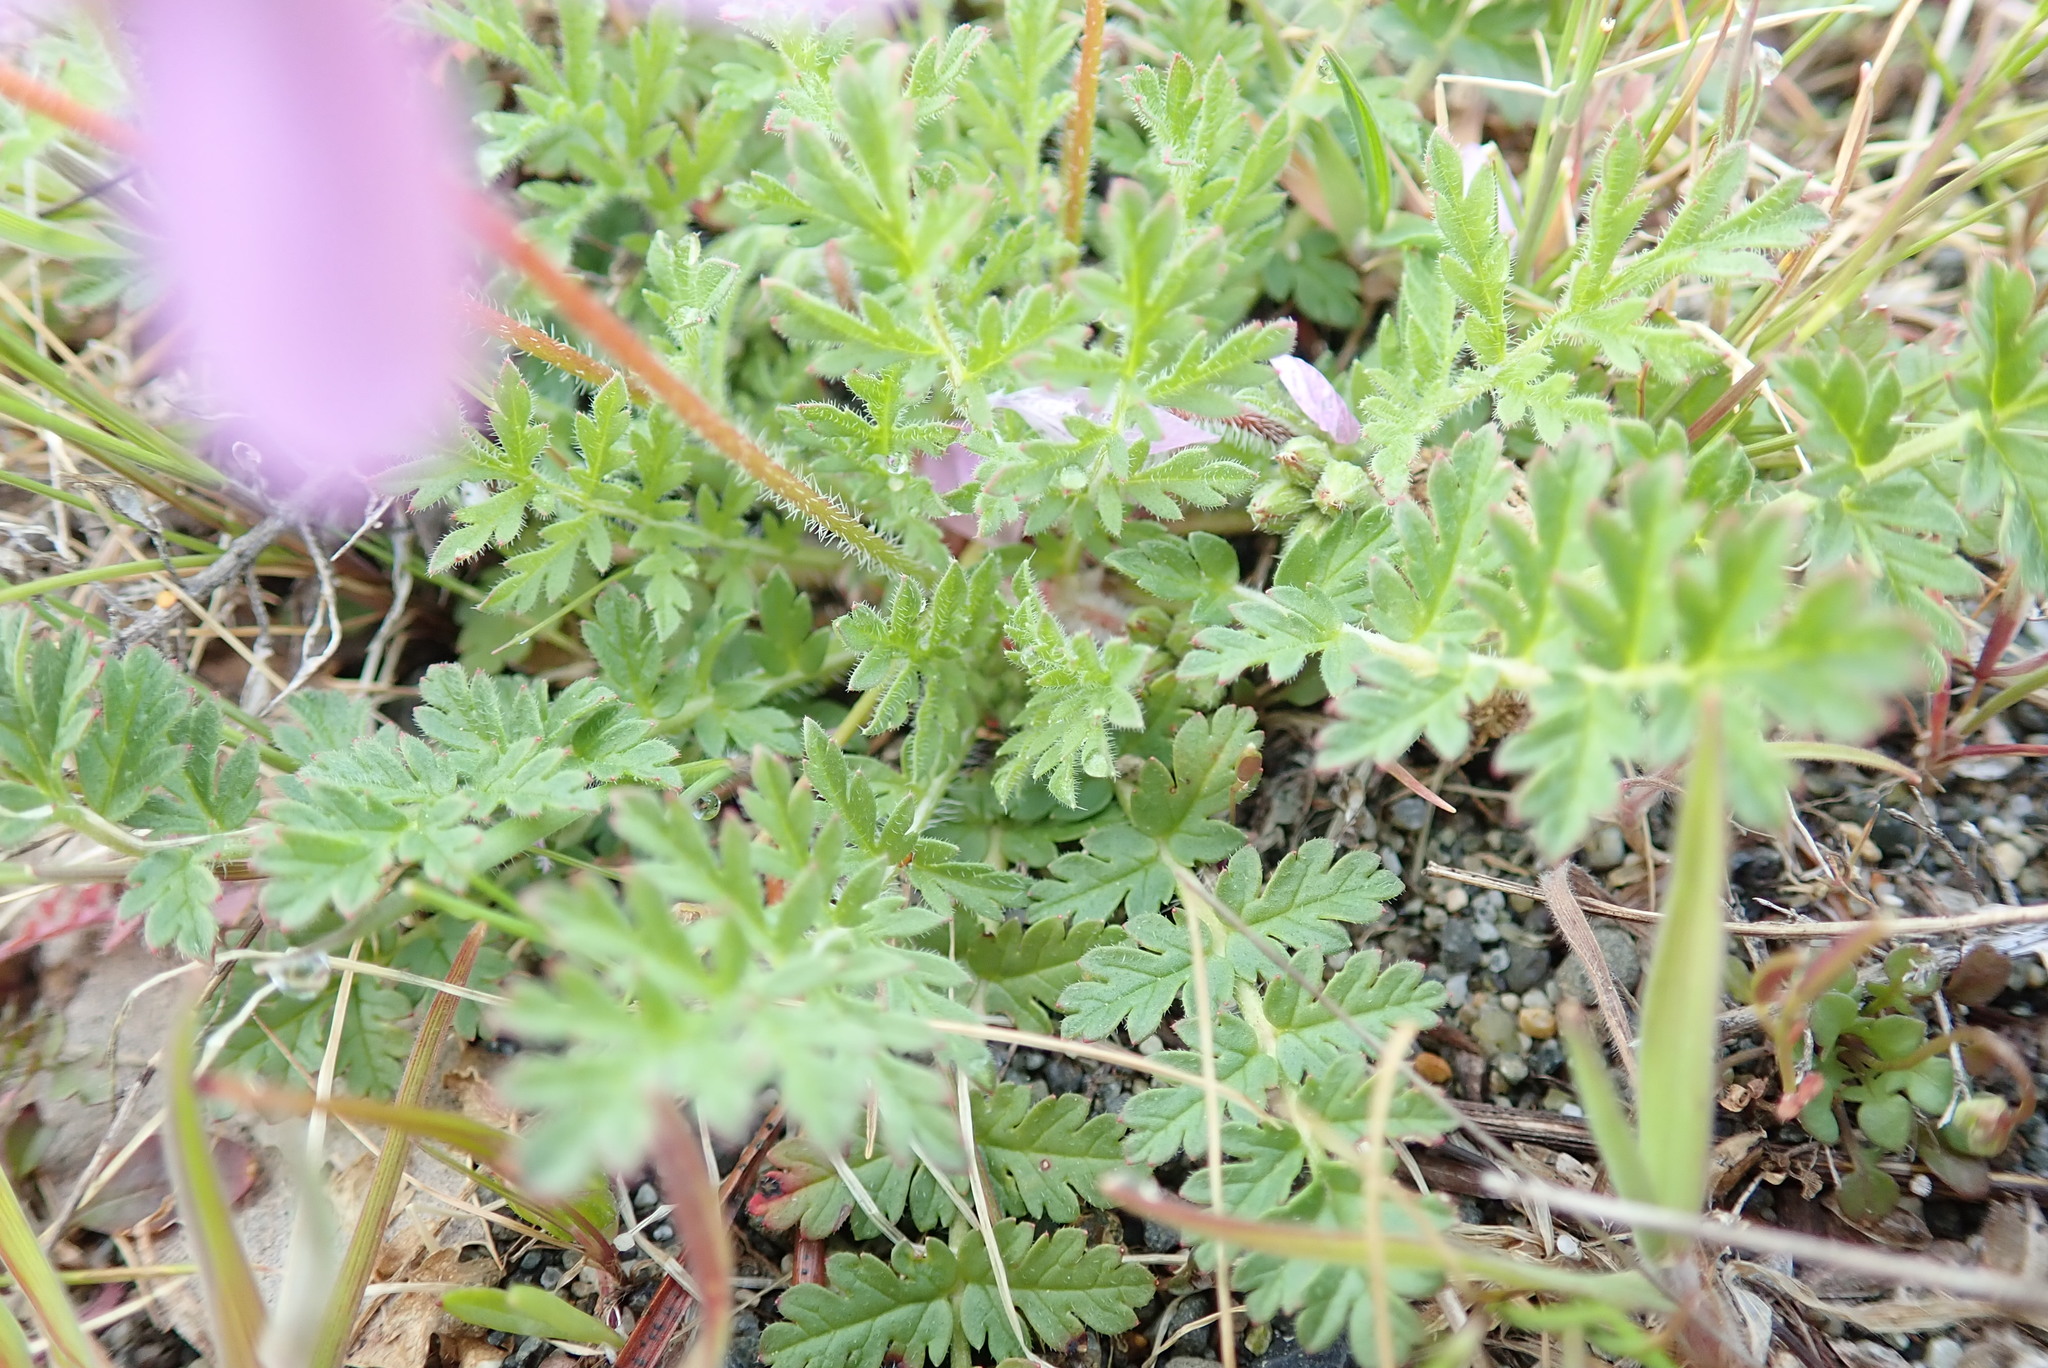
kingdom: Plantae
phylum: Tracheophyta
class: Magnoliopsida
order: Geraniales
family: Geraniaceae
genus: Erodium
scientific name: Erodium cicutarium
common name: Common stork's-bill
